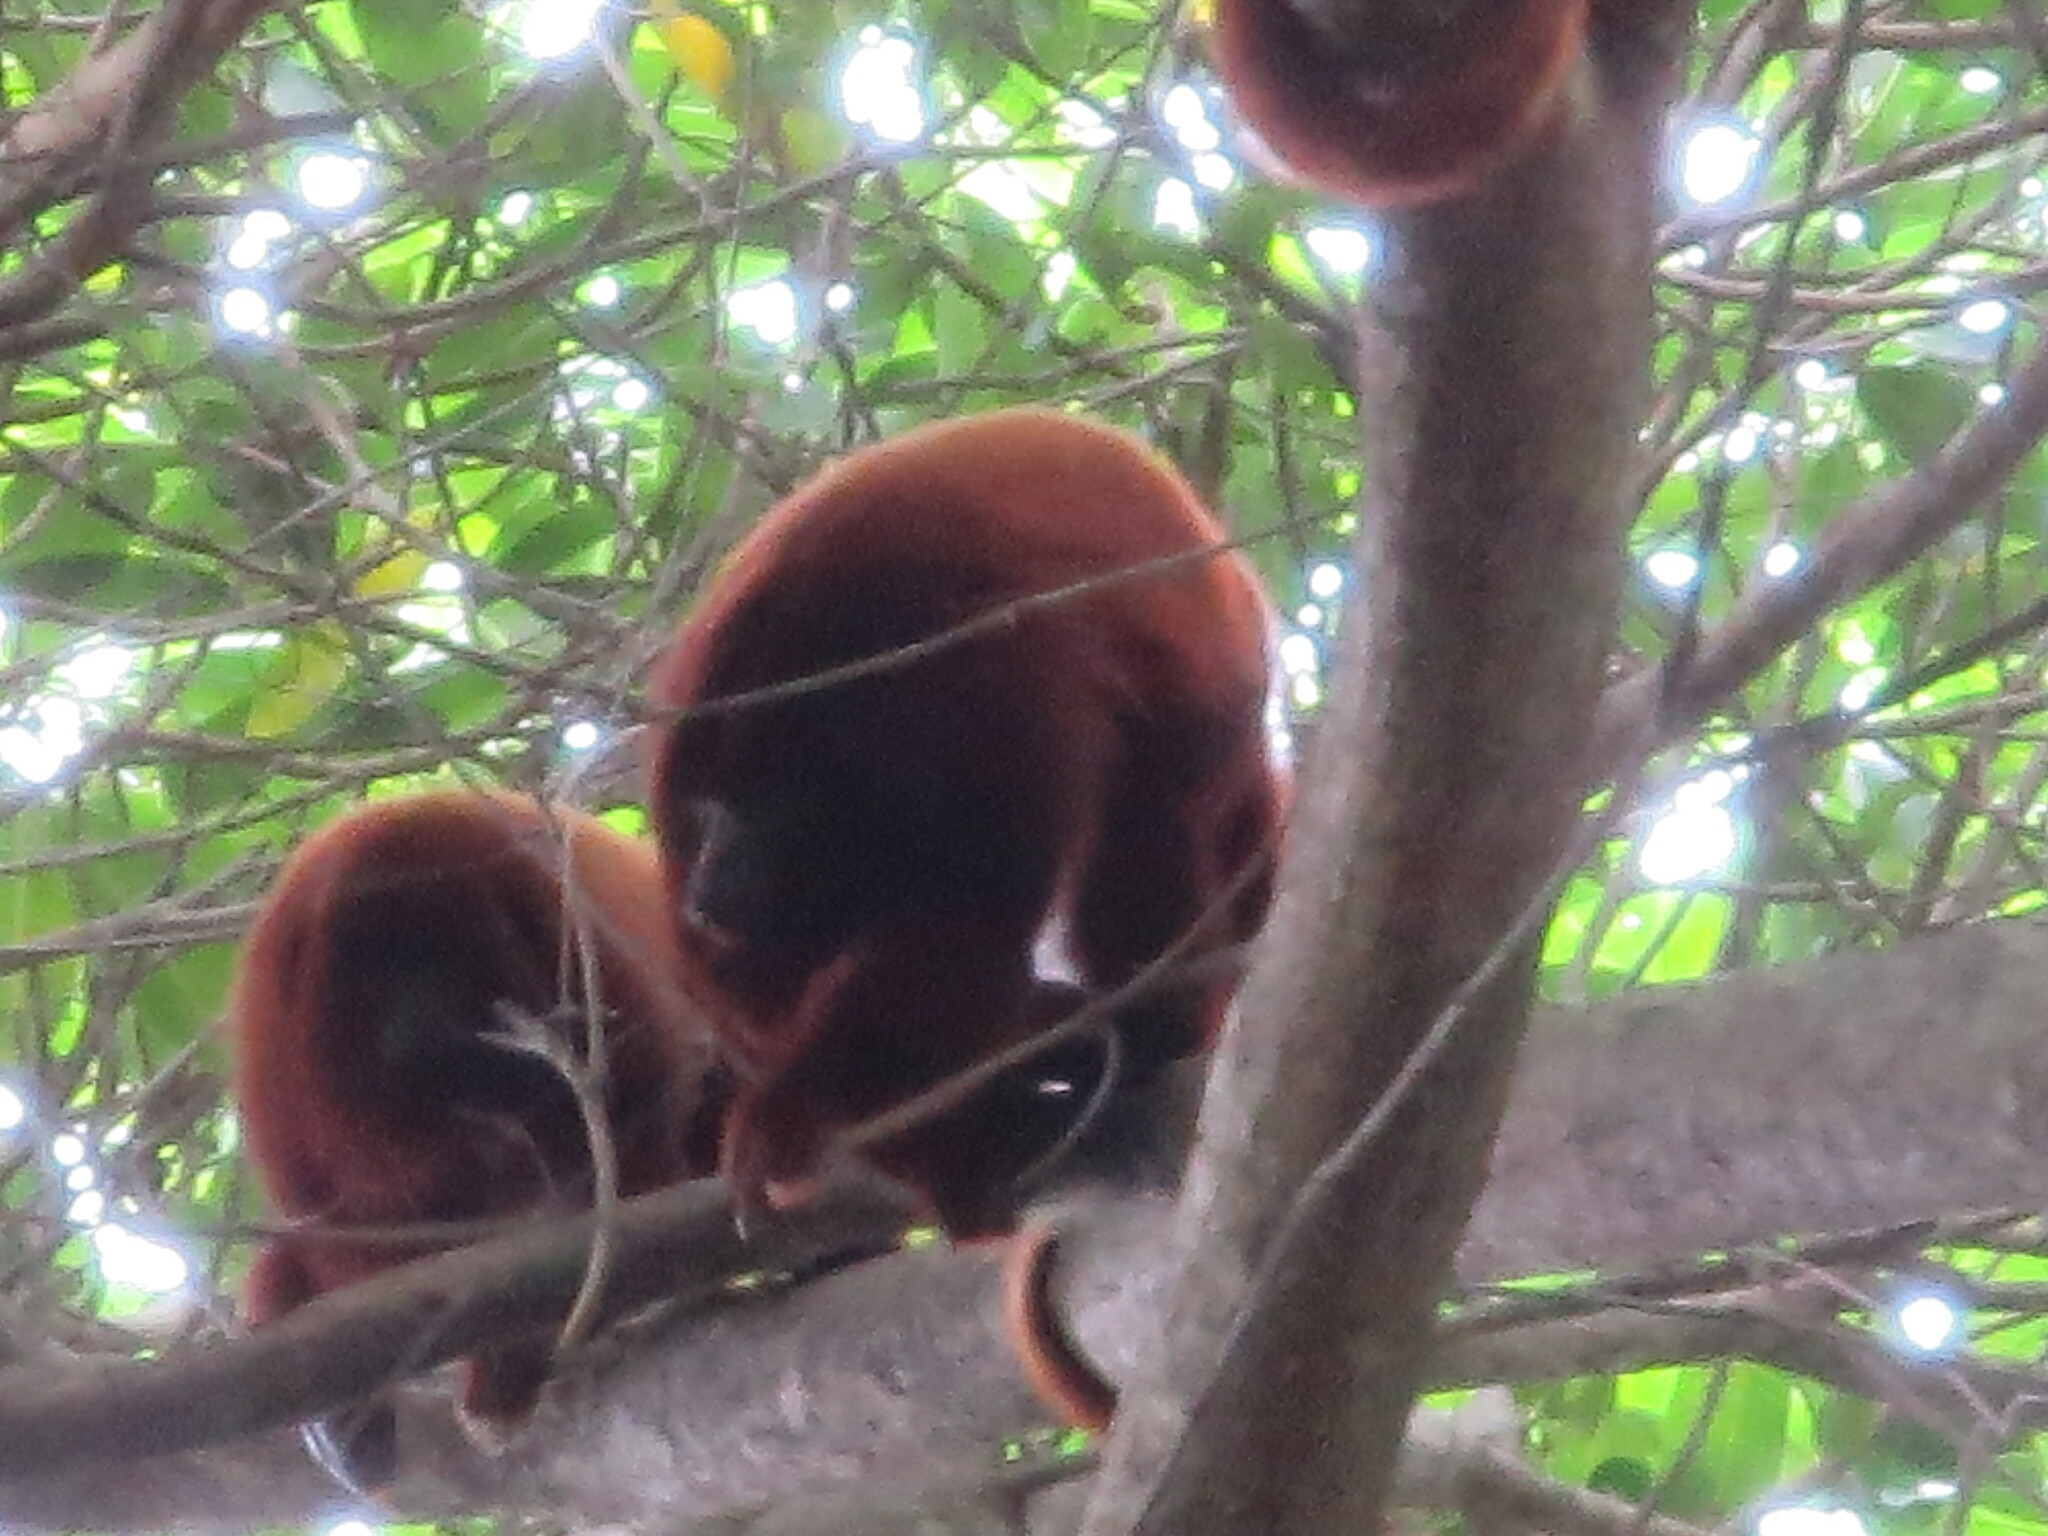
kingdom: Animalia
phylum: Chordata
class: Mammalia
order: Primates
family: Atelidae
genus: Alouatta
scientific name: Alouatta seniculus
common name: Venezuelan red howler
